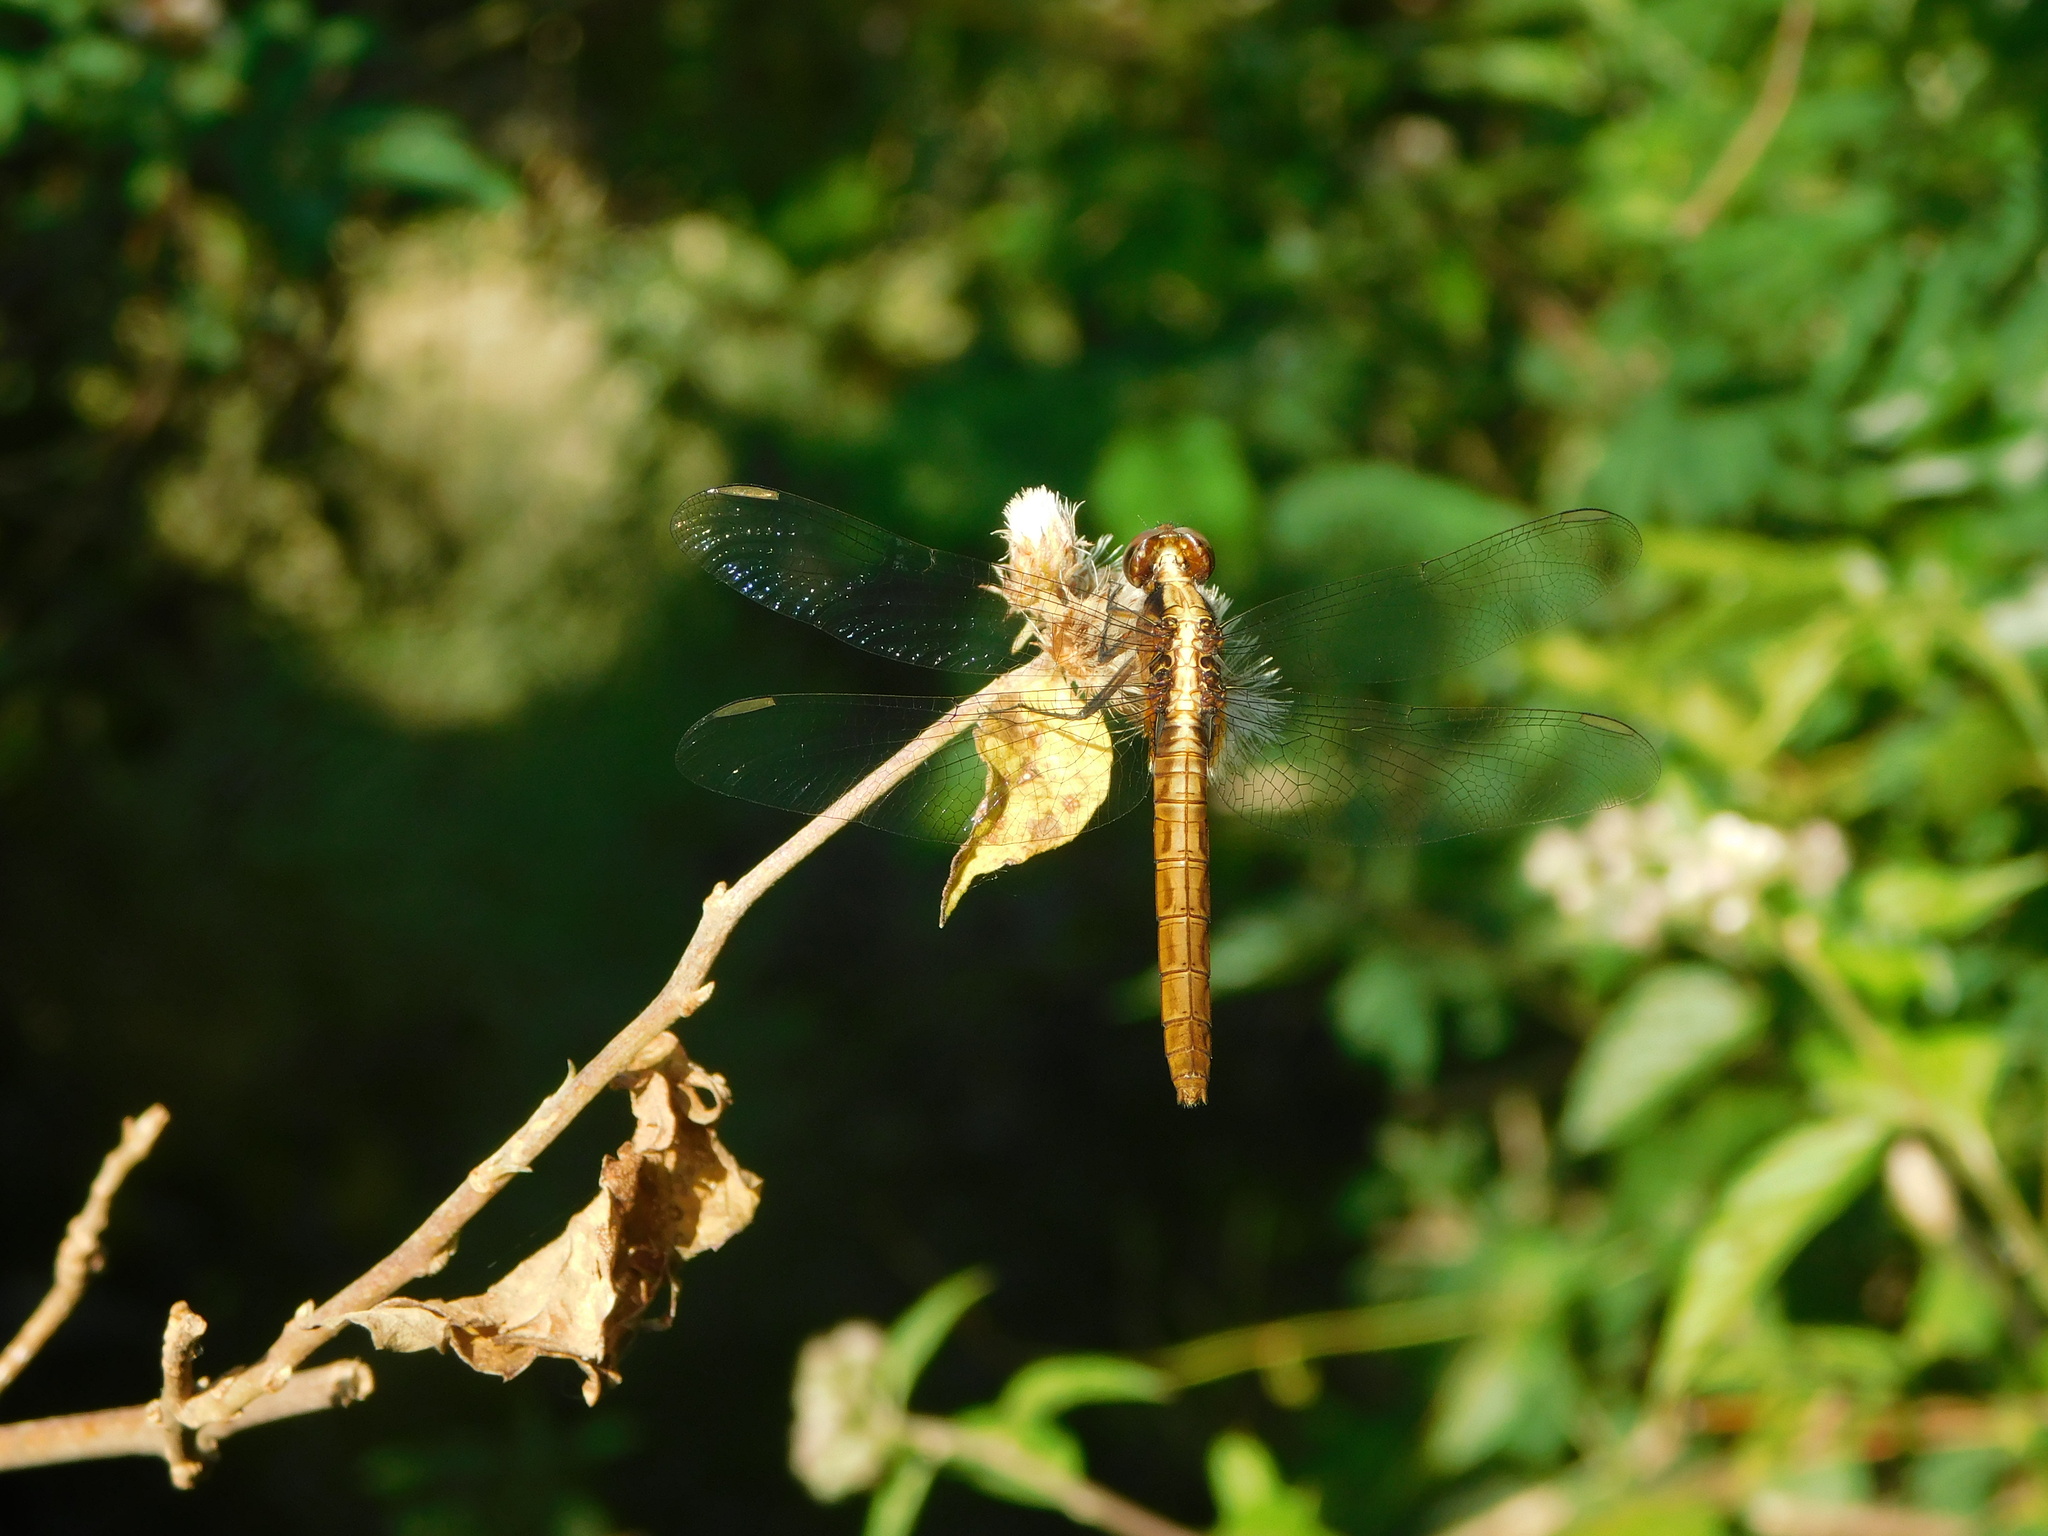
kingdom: Animalia
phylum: Arthropoda
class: Insecta
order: Odonata
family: Libellulidae
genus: Erythemis
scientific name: Erythemis peruviana
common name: Flame-tailed pondhawk
